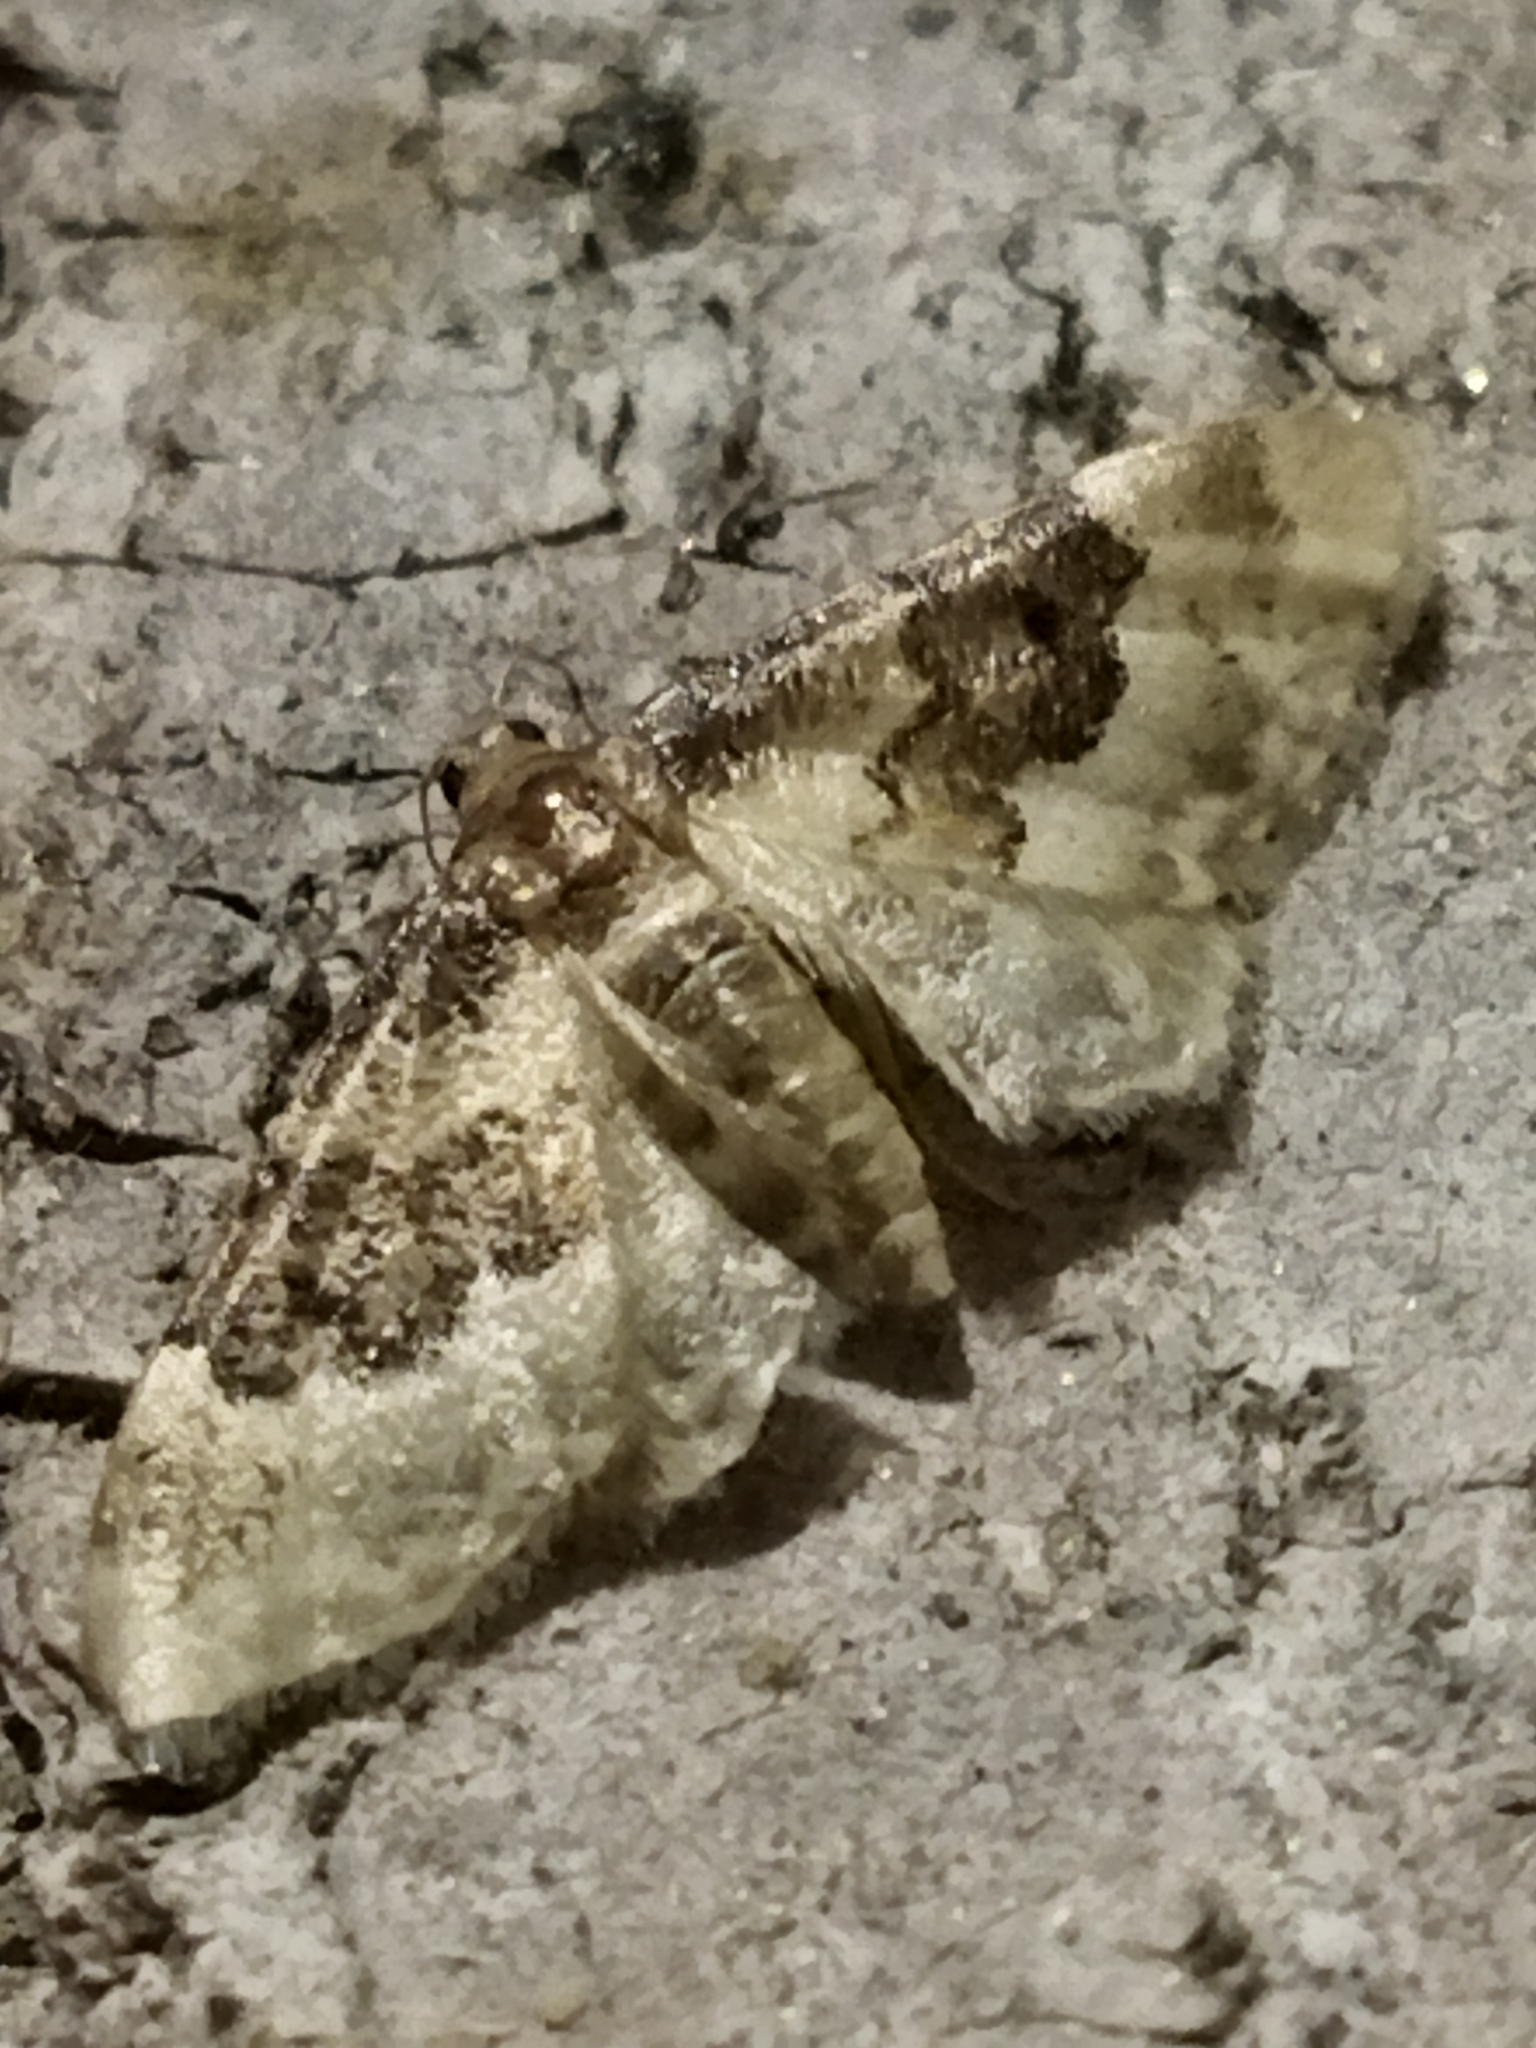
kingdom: Animalia
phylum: Arthropoda
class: Insecta
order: Lepidoptera
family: Geometridae
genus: Idaea
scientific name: Idaea rusticata
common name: Least carpet
